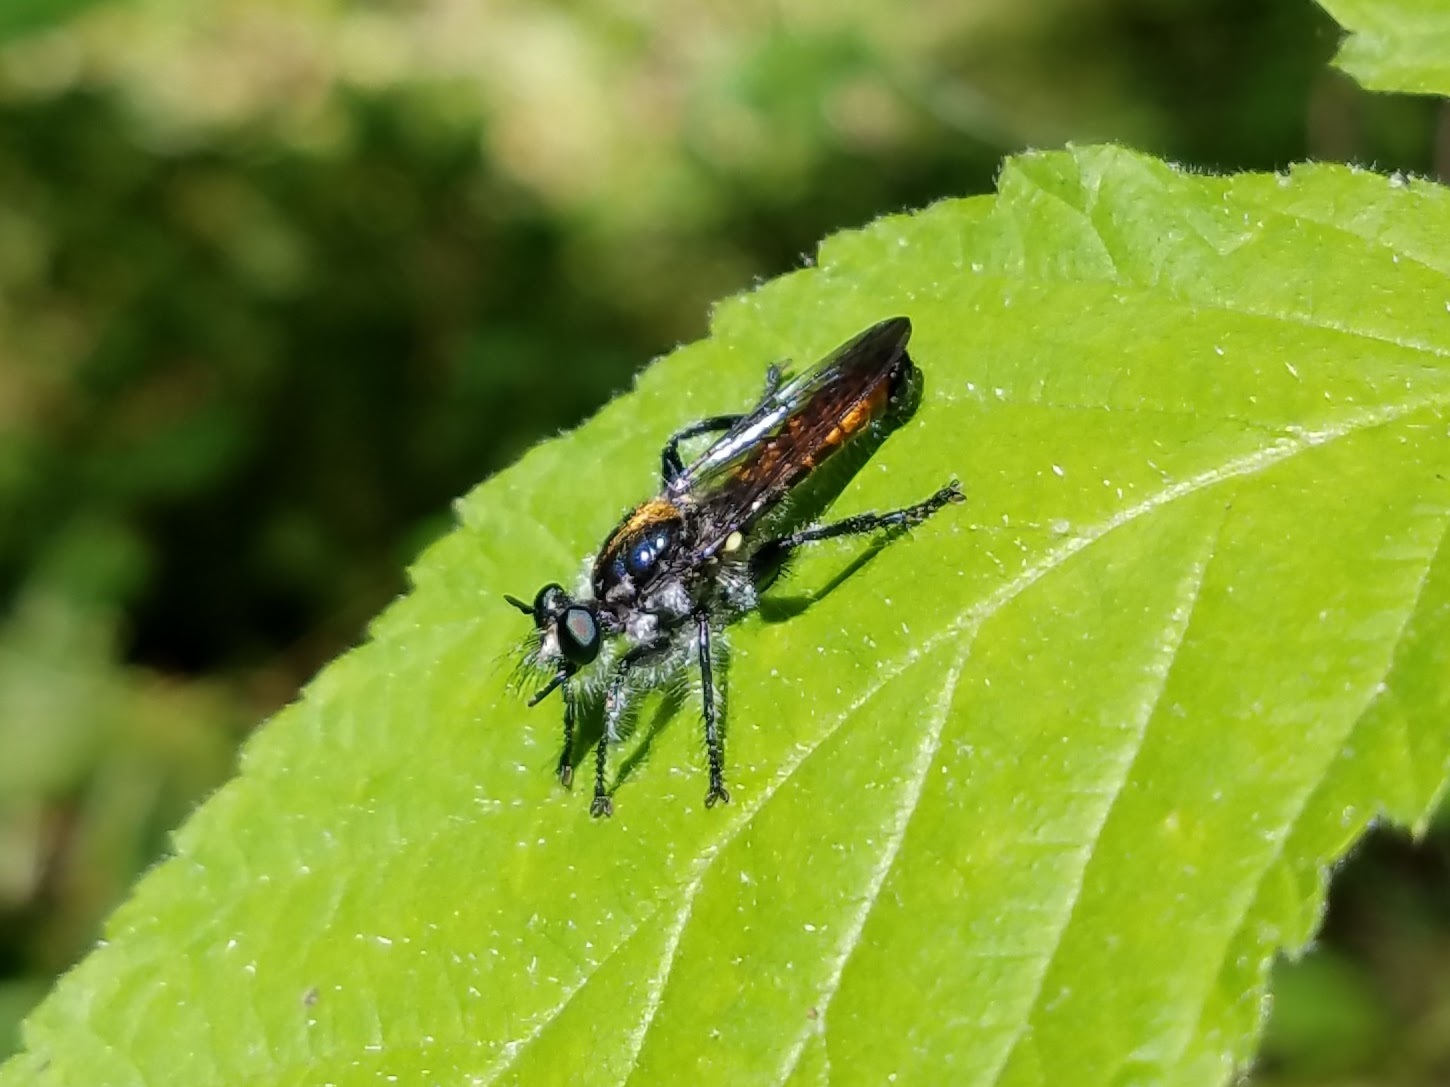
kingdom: Animalia
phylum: Arthropoda
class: Insecta
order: Diptera
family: Asilidae
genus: Laphria
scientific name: Laphria
